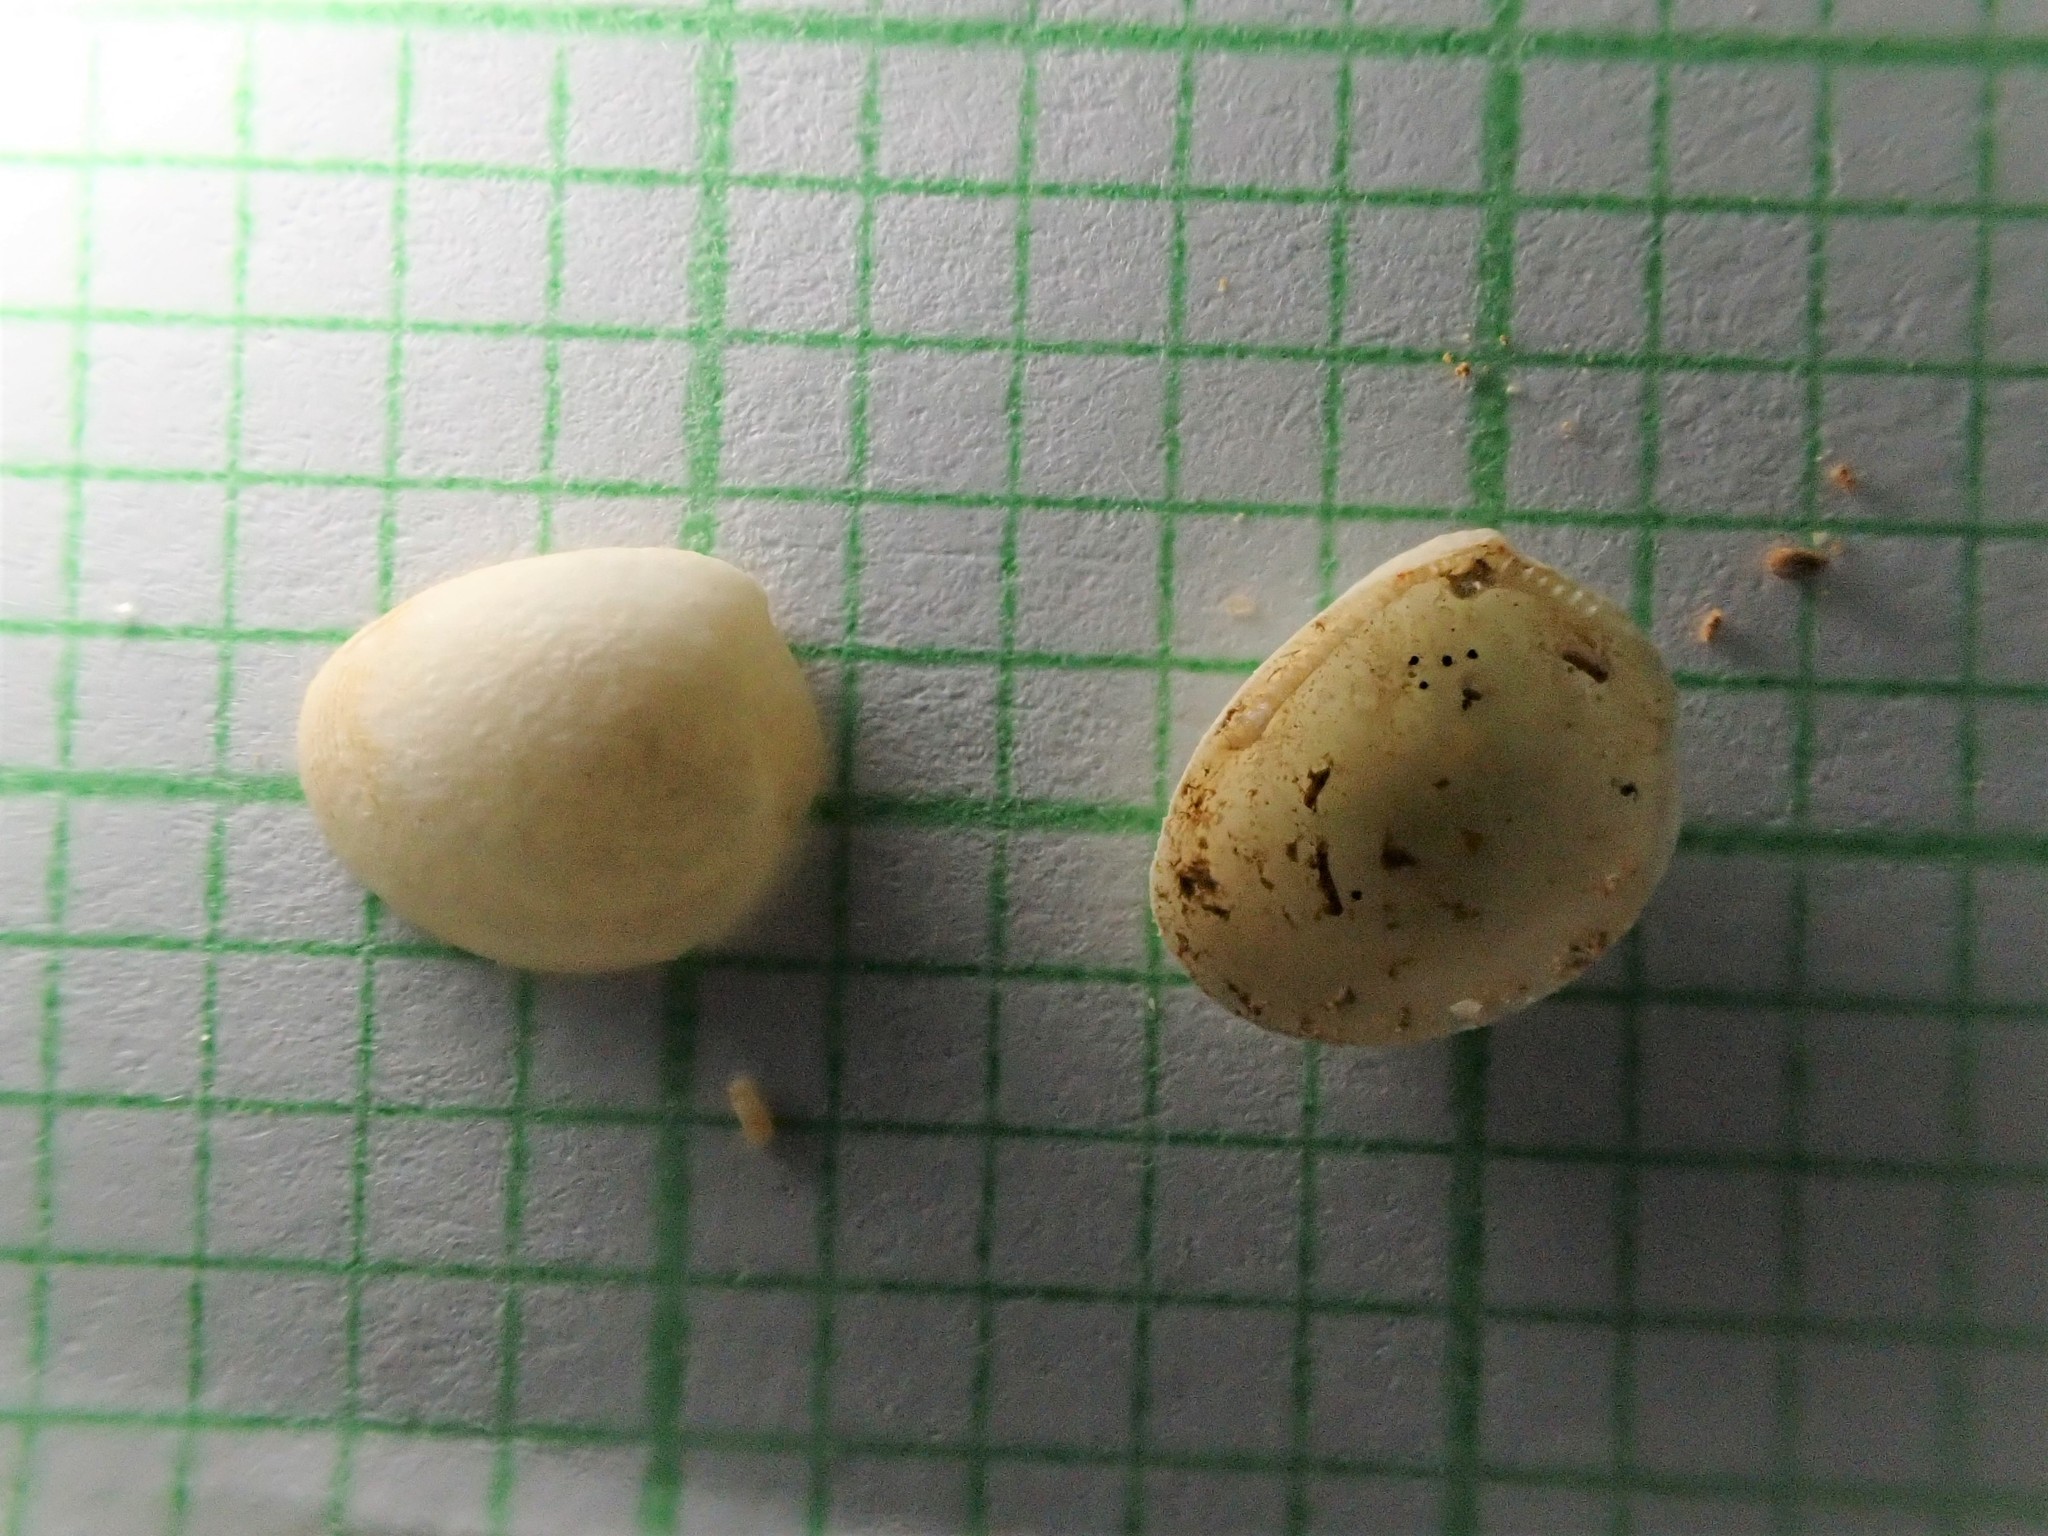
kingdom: Animalia
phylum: Mollusca
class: Bivalvia
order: Nuculida
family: Nuculidae
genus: Linucula
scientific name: Linucula hartvigiana
